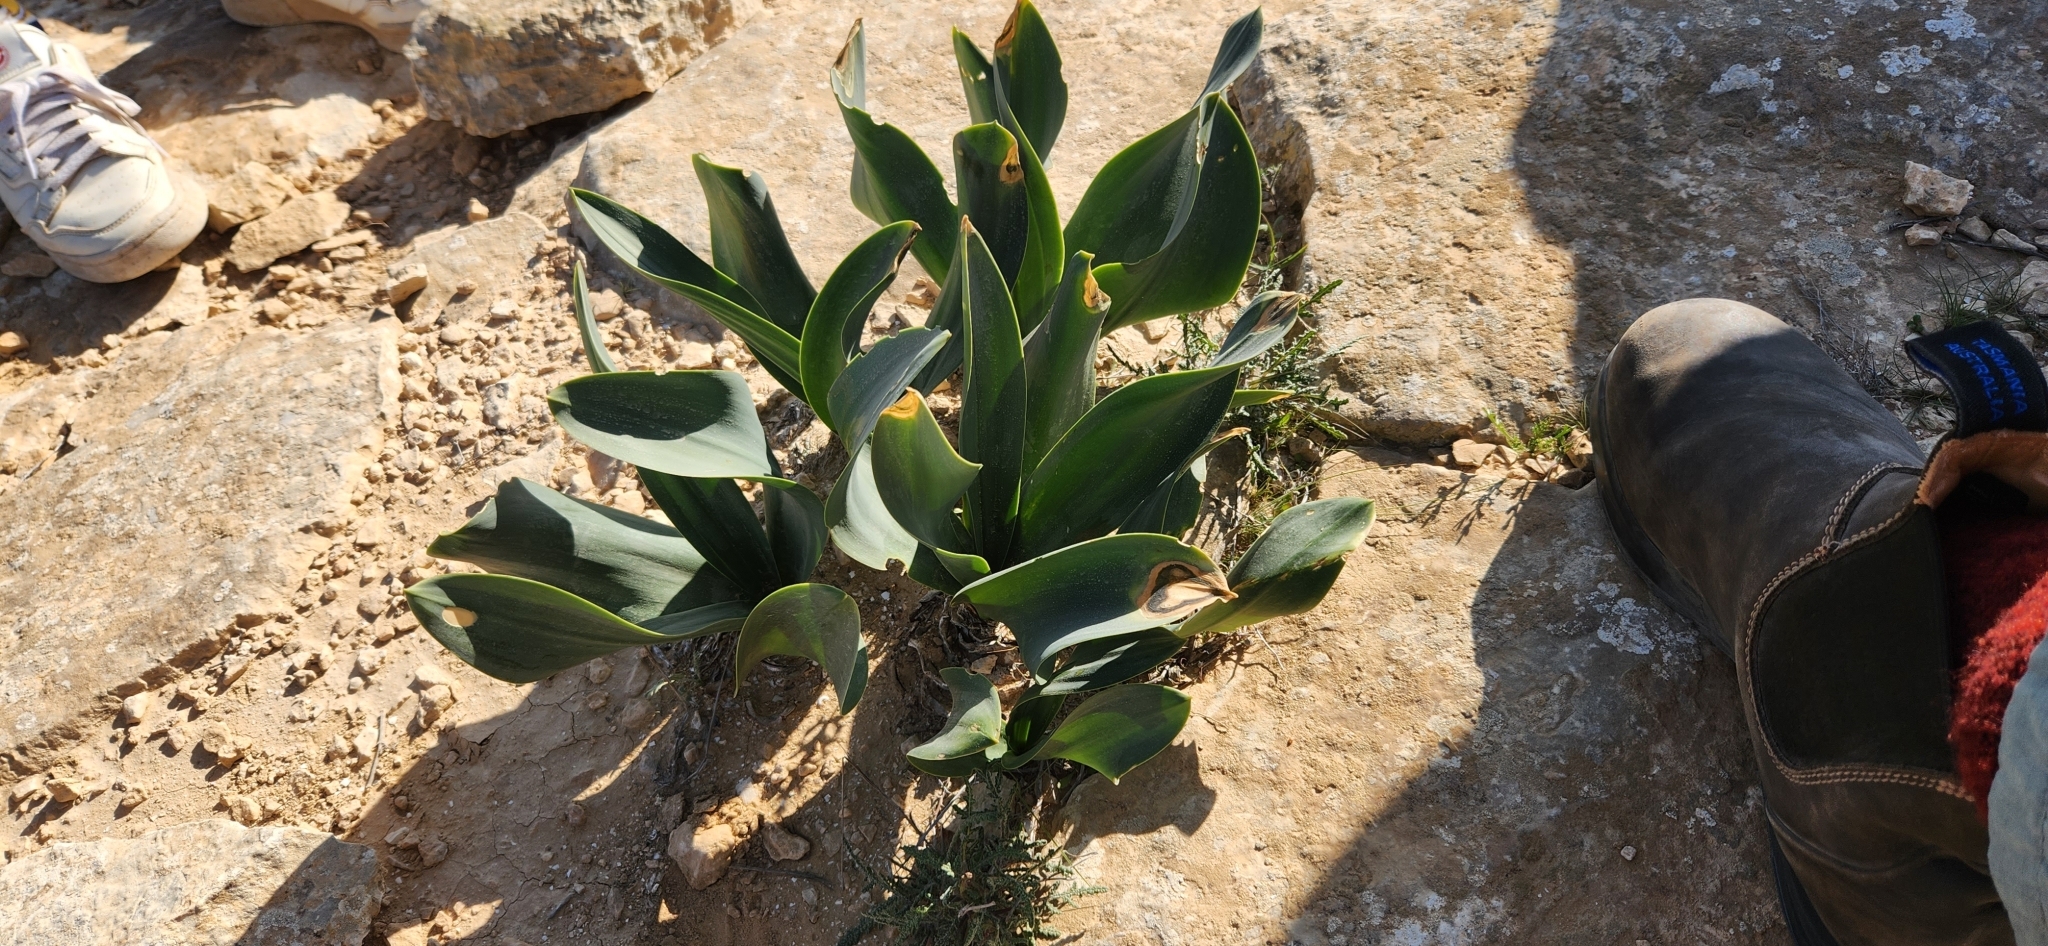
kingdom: Plantae
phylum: Tracheophyta
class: Liliopsida
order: Asparagales
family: Asparagaceae
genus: Drimia
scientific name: Drimia aphylla
